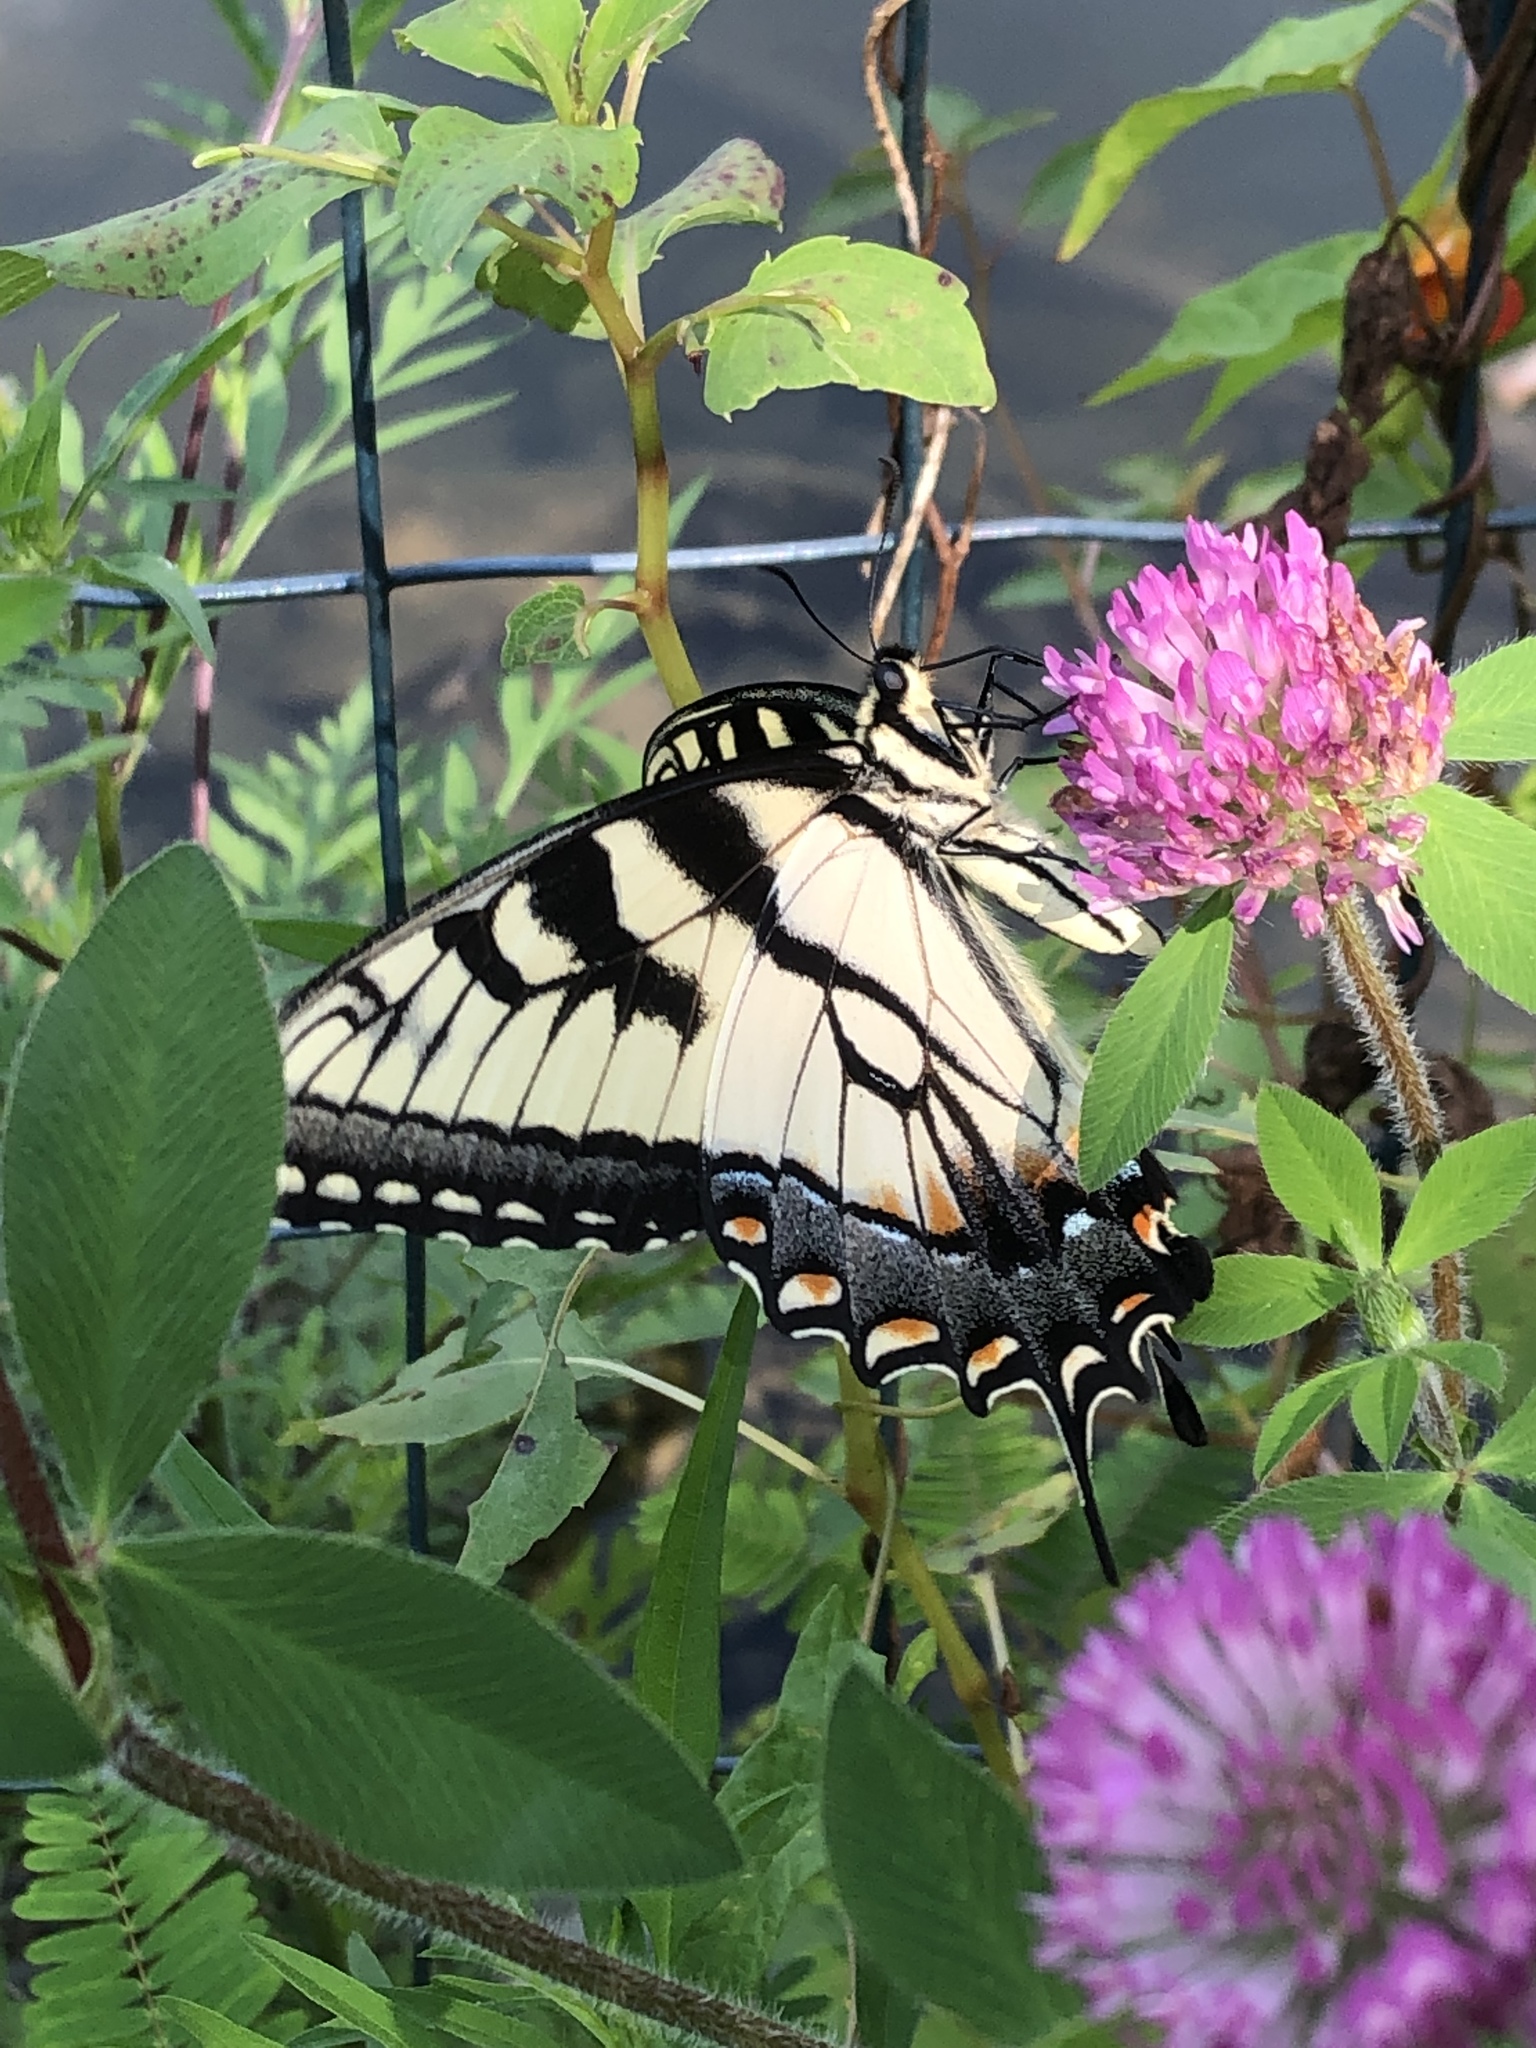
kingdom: Animalia
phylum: Arthropoda
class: Insecta
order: Lepidoptera
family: Papilionidae
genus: Papilio
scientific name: Papilio glaucus
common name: Tiger swallowtail
